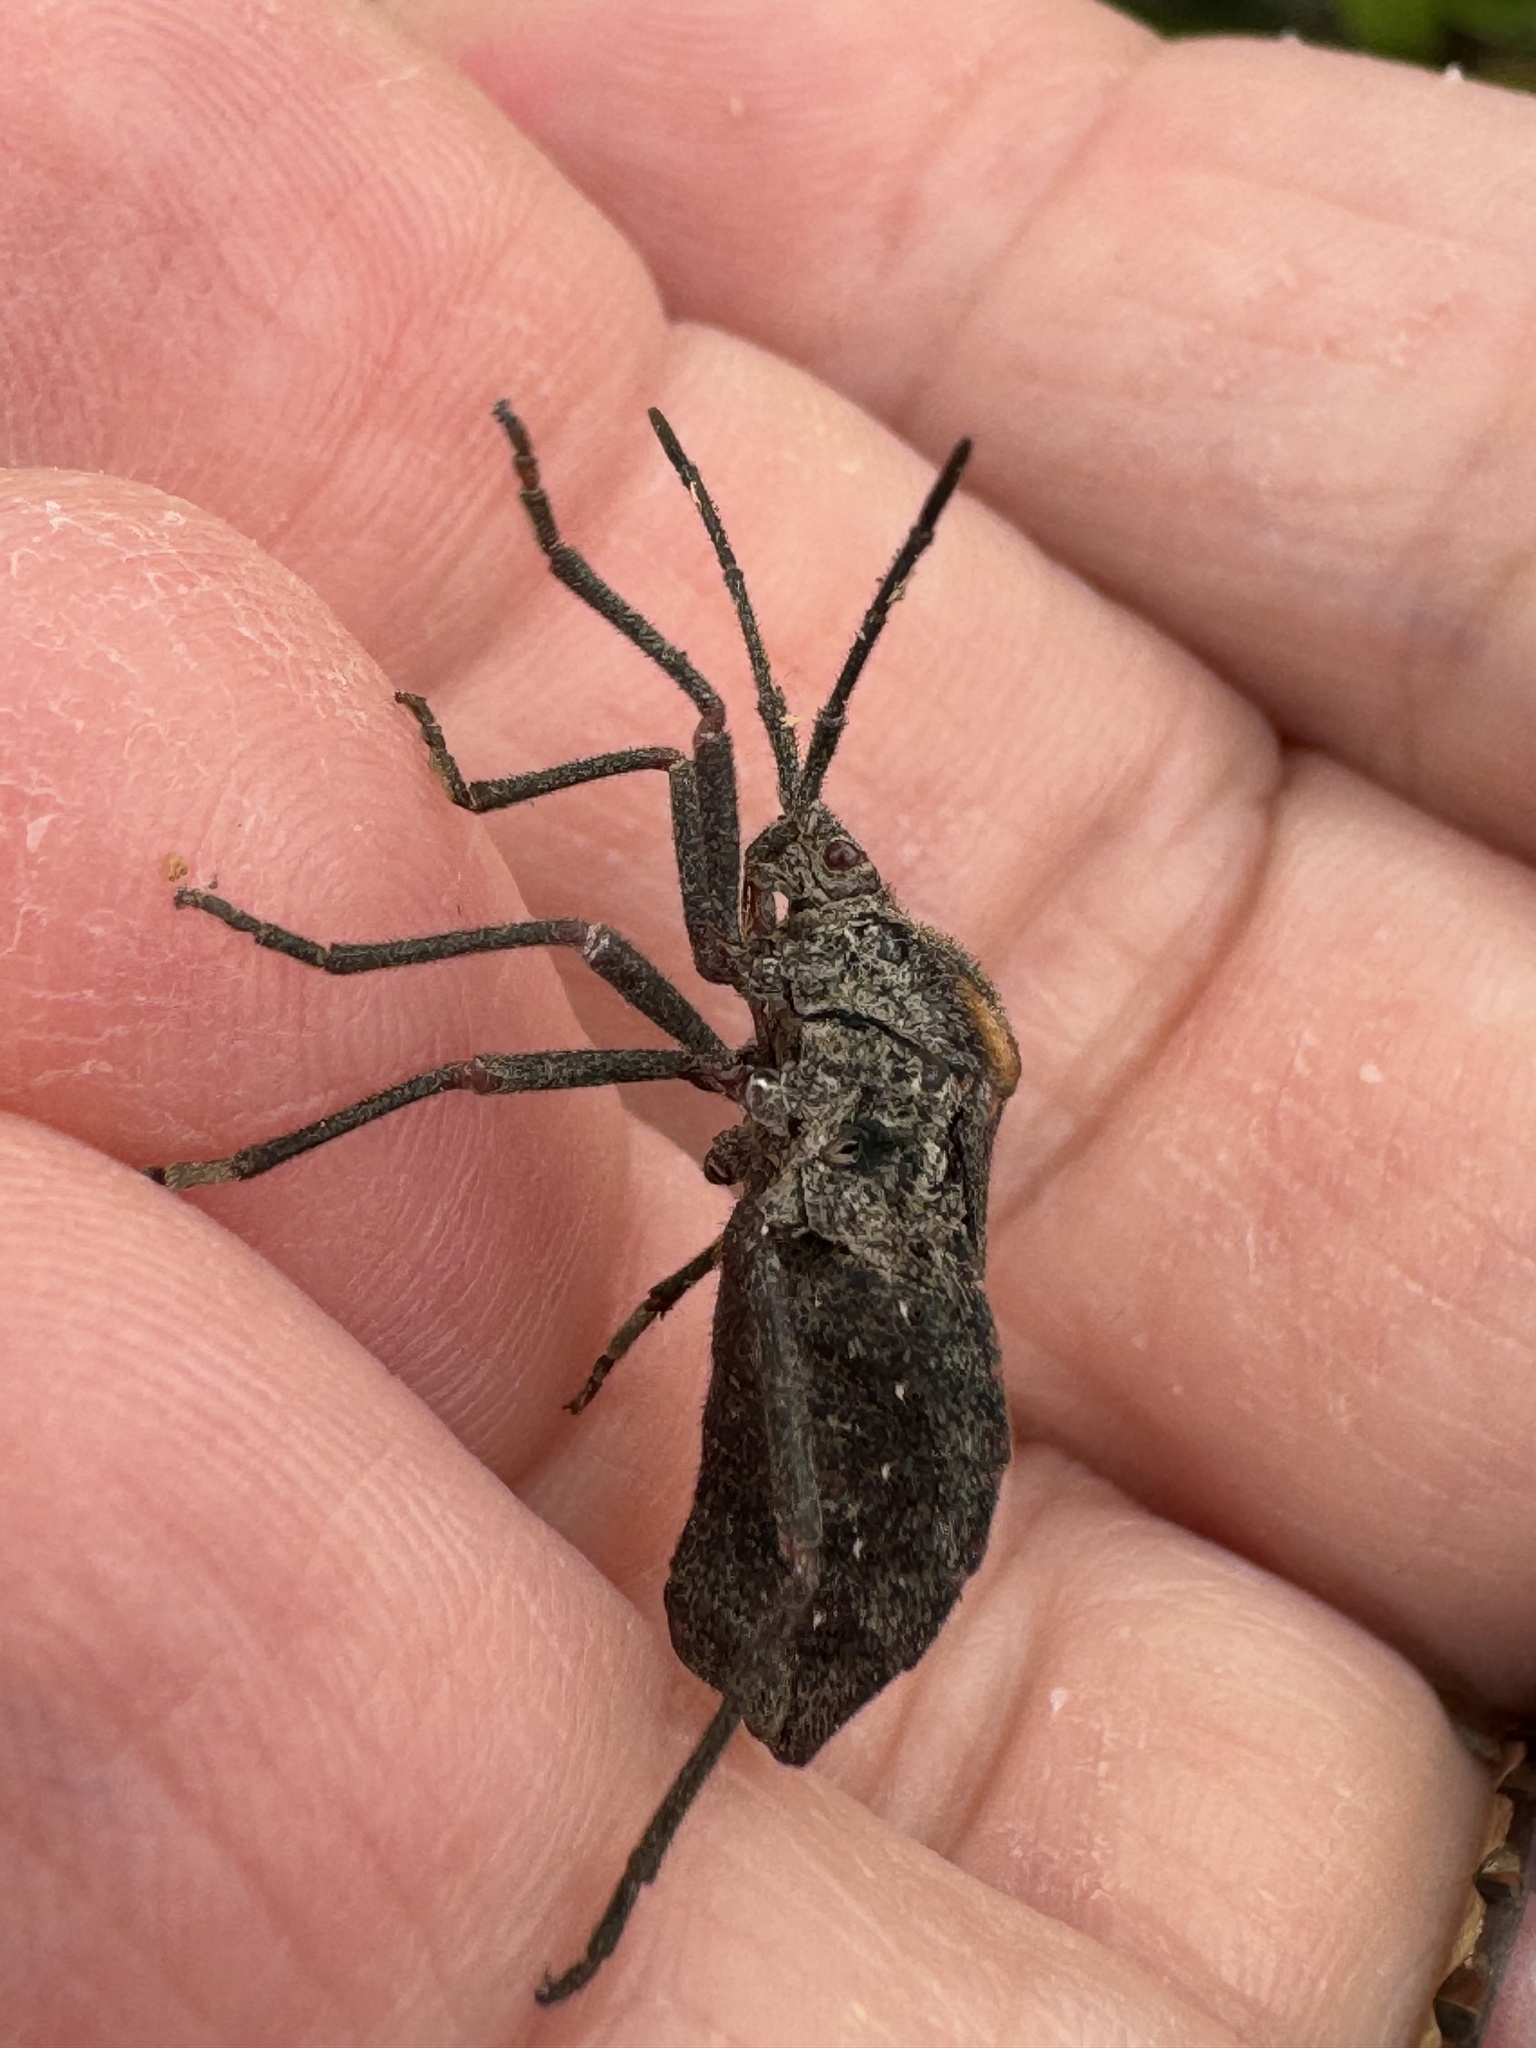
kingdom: Animalia
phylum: Arthropoda
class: Insecta
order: Hemiptera
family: Coreidae
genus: Spartocera
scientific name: Spartocera batatas
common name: Giant sweetpotato bug
